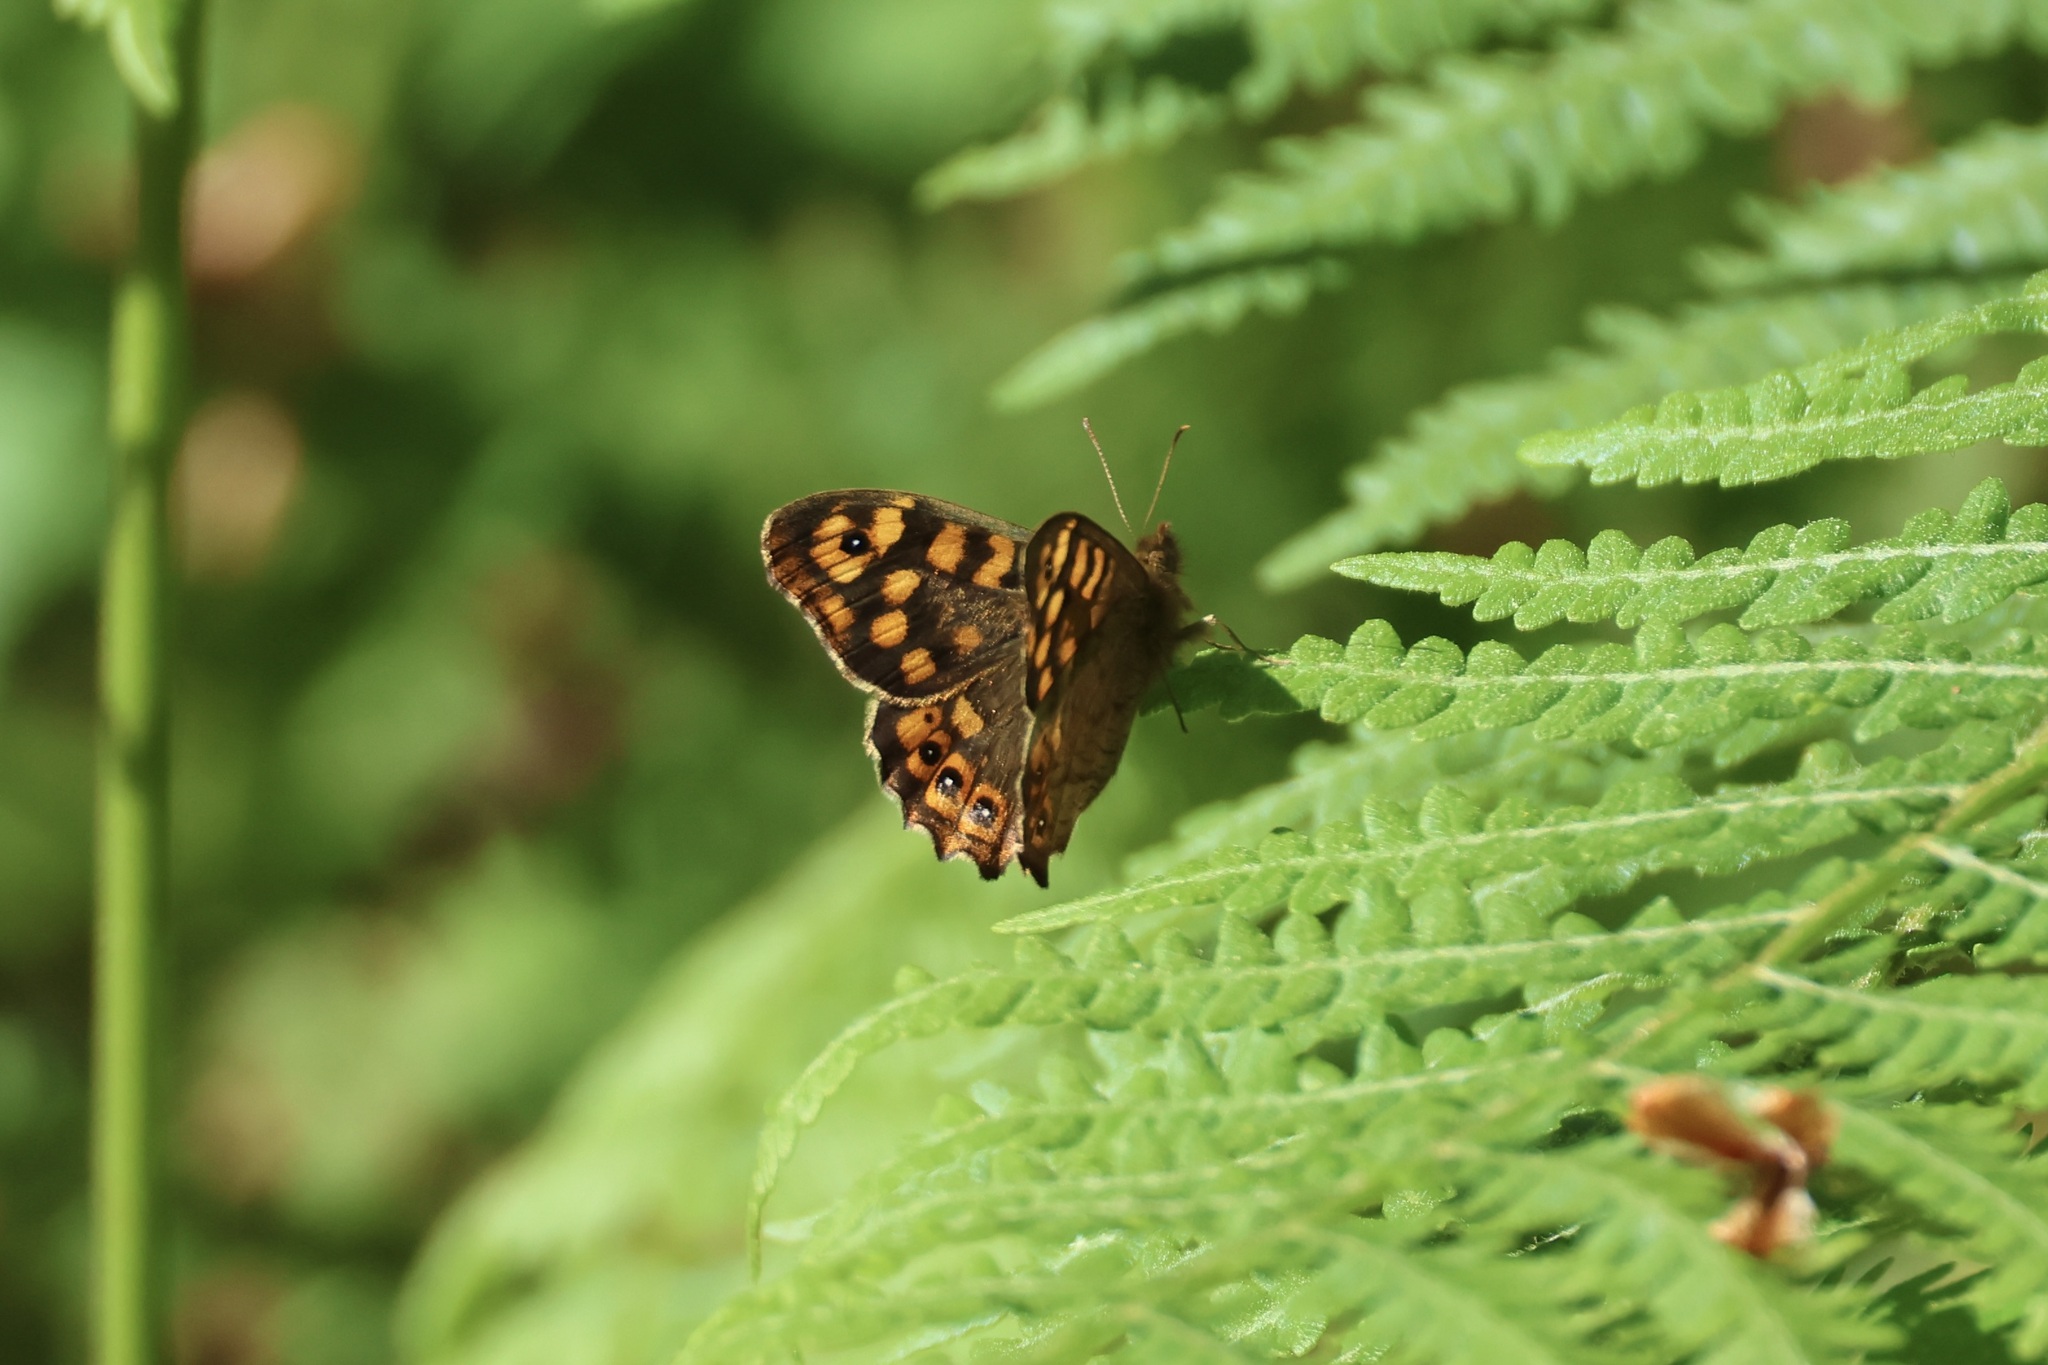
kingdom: Animalia
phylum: Arthropoda
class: Insecta
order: Lepidoptera
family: Nymphalidae
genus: Pararge
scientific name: Pararge aegeria
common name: Speckled wood
